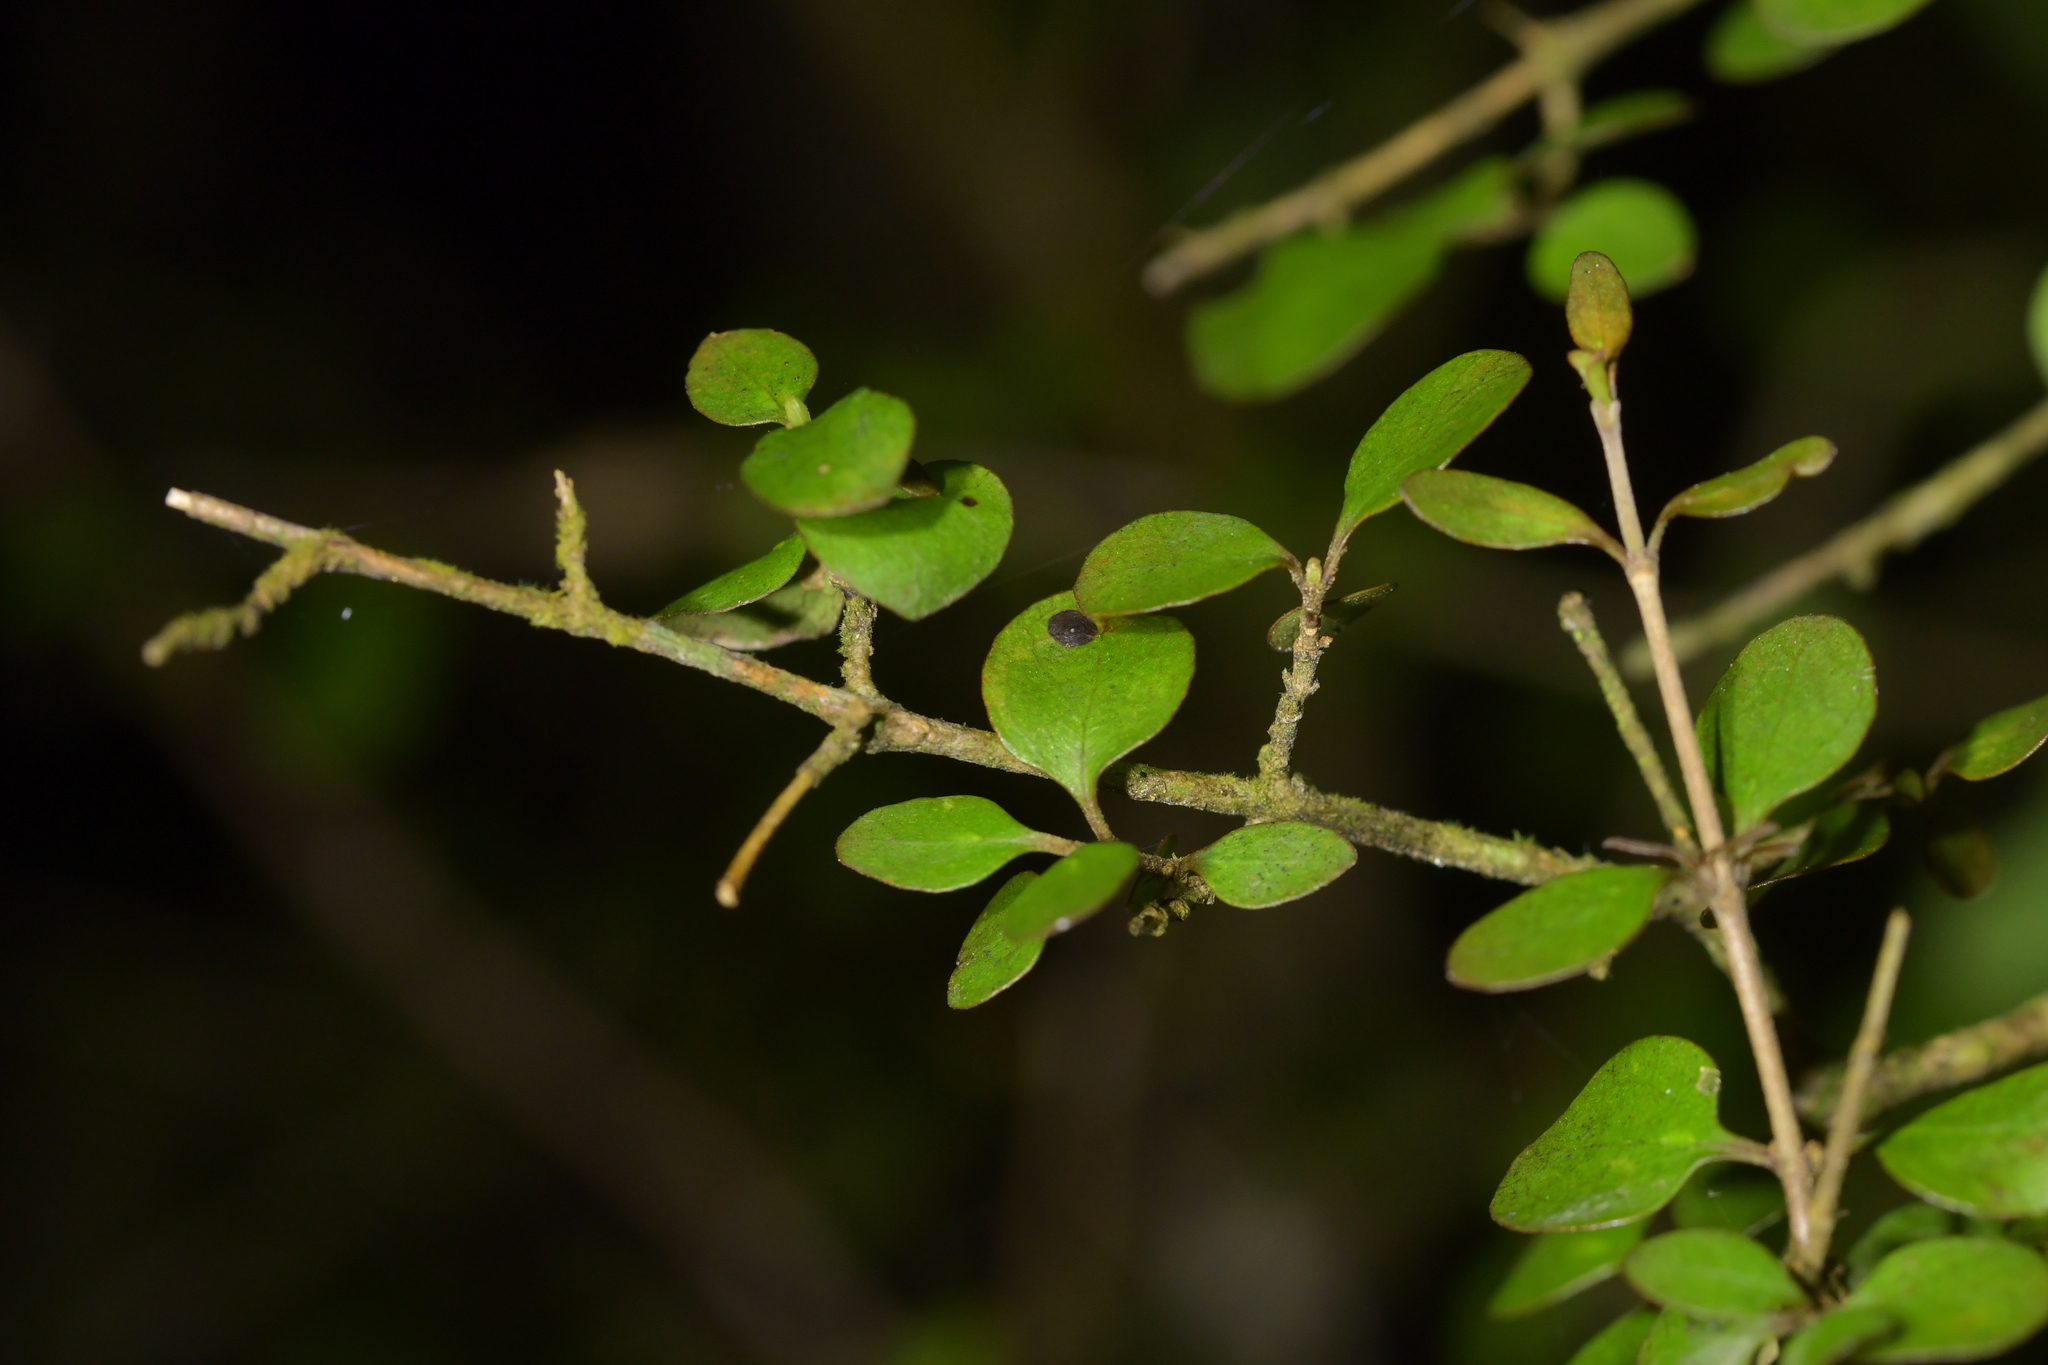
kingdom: Plantae
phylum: Tracheophyta
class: Magnoliopsida
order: Gentianales
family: Rubiaceae
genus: Coprosma
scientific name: Coprosma rhamnoides
